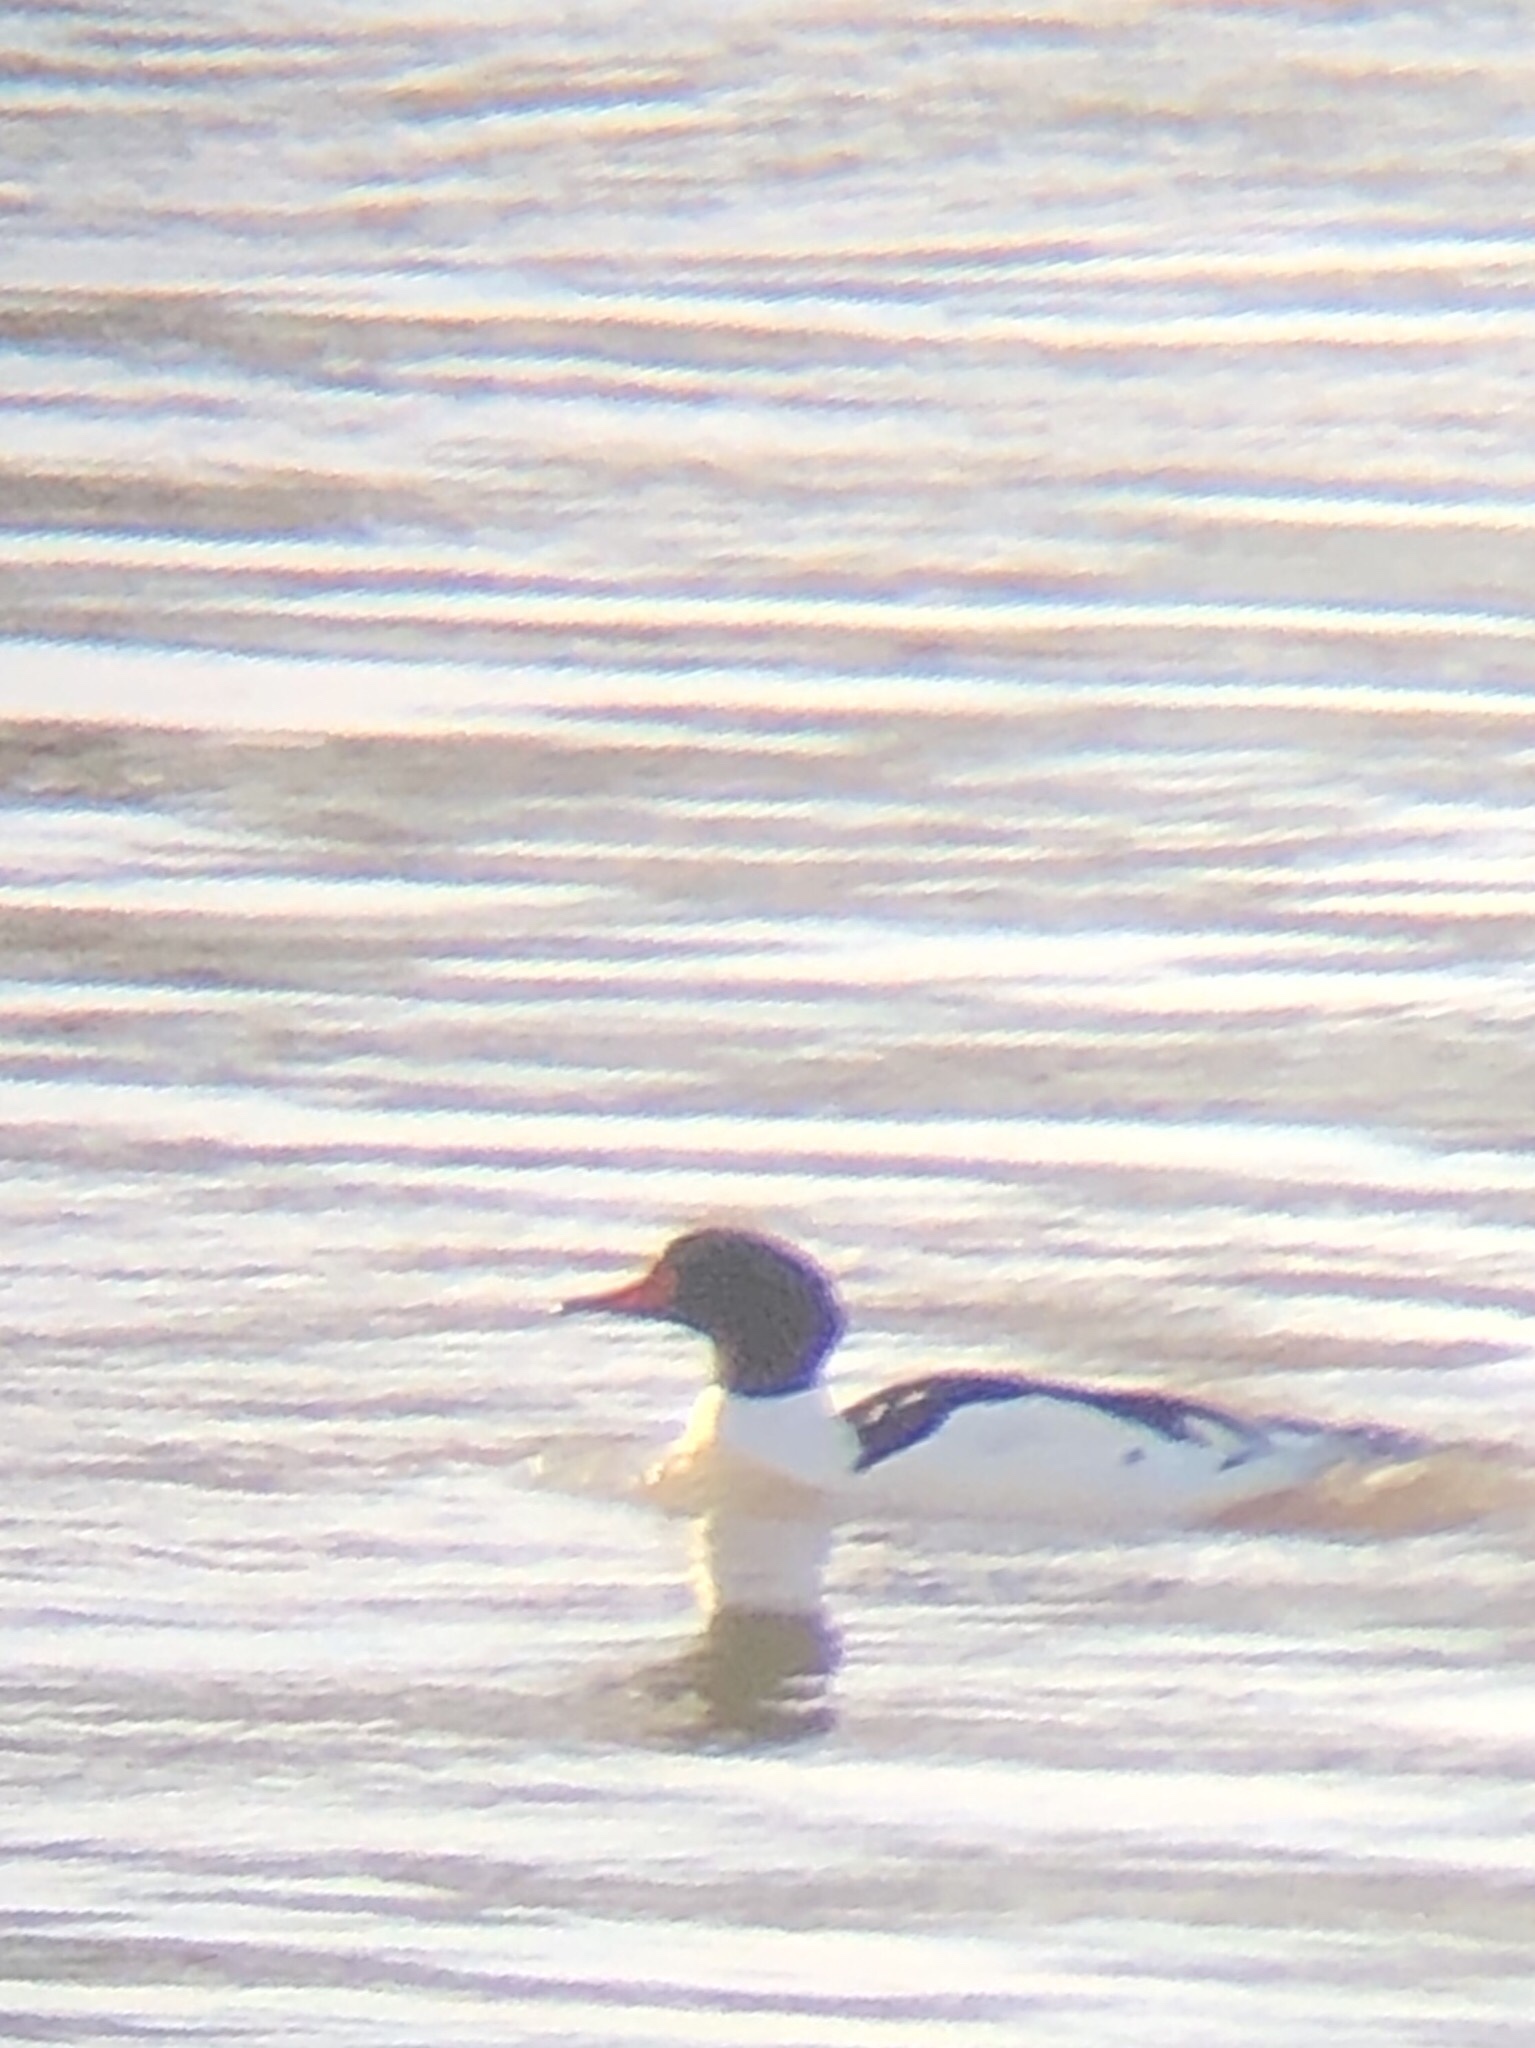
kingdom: Animalia
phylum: Chordata
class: Aves
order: Anseriformes
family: Anatidae
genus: Mergus
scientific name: Mergus merganser
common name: Common merganser
